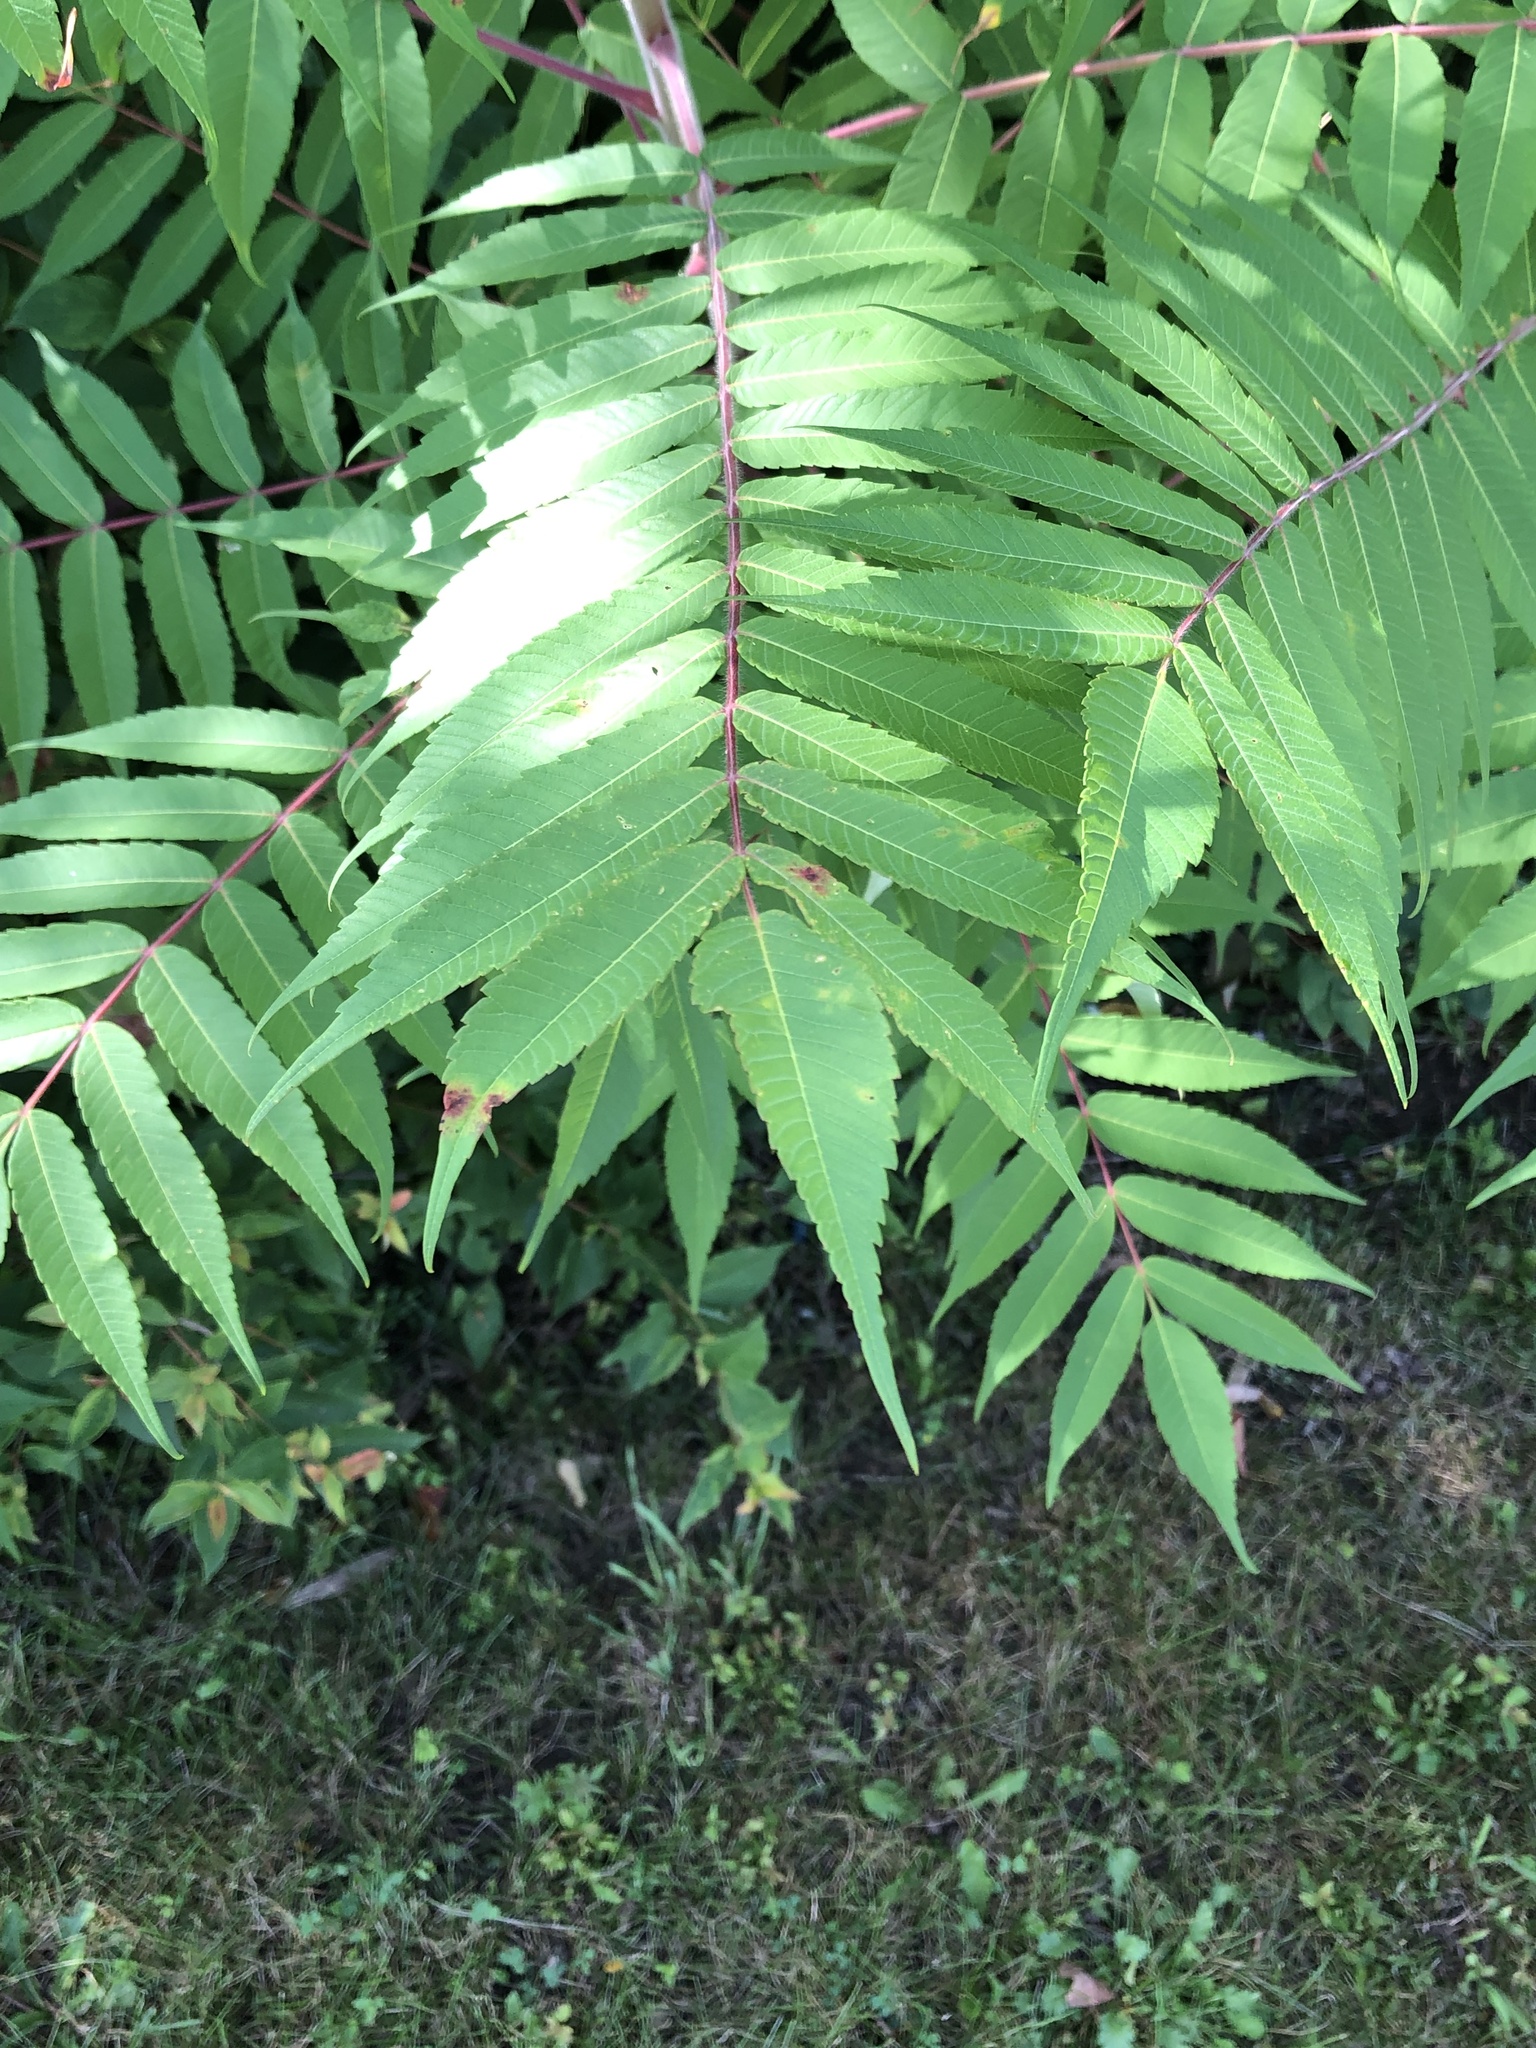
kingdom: Plantae
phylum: Tracheophyta
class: Magnoliopsida
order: Sapindales
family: Anacardiaceae
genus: Rhus
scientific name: Rhus typhina
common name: Staghorn sumac
